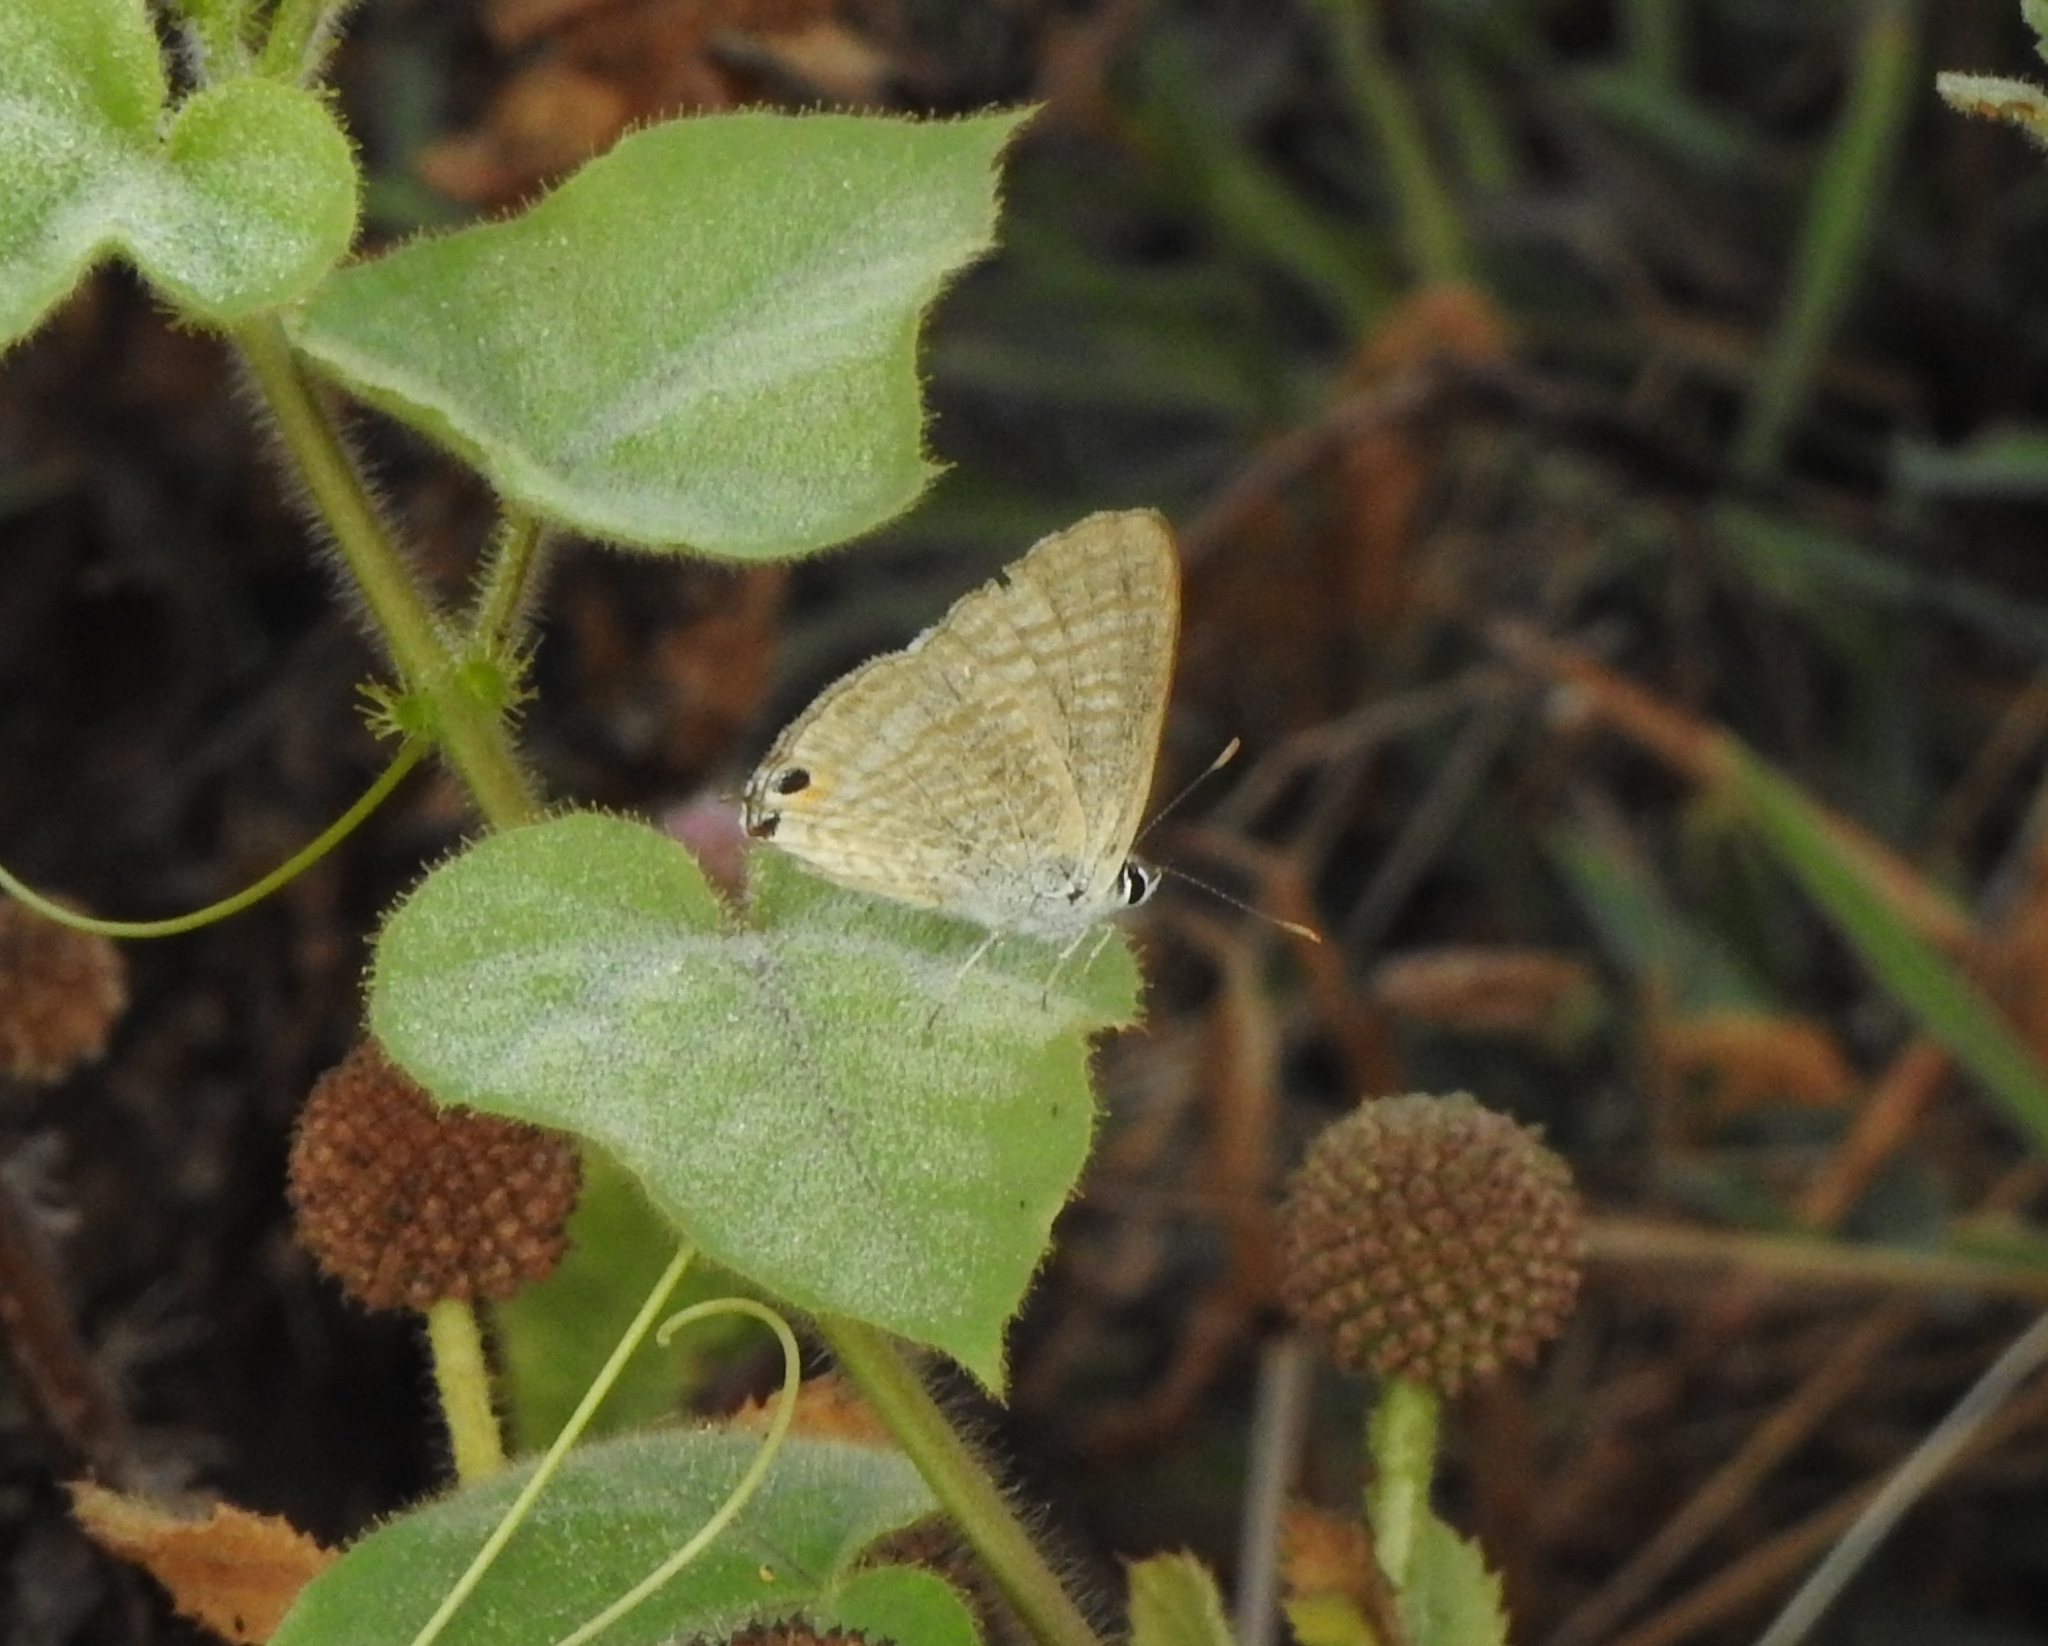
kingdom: Animalia
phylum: Arthropoda
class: Insecta
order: Lepidoptera
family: Lycaenidae
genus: Lampides
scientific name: Lampides boeticus
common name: Long-tailed blue
